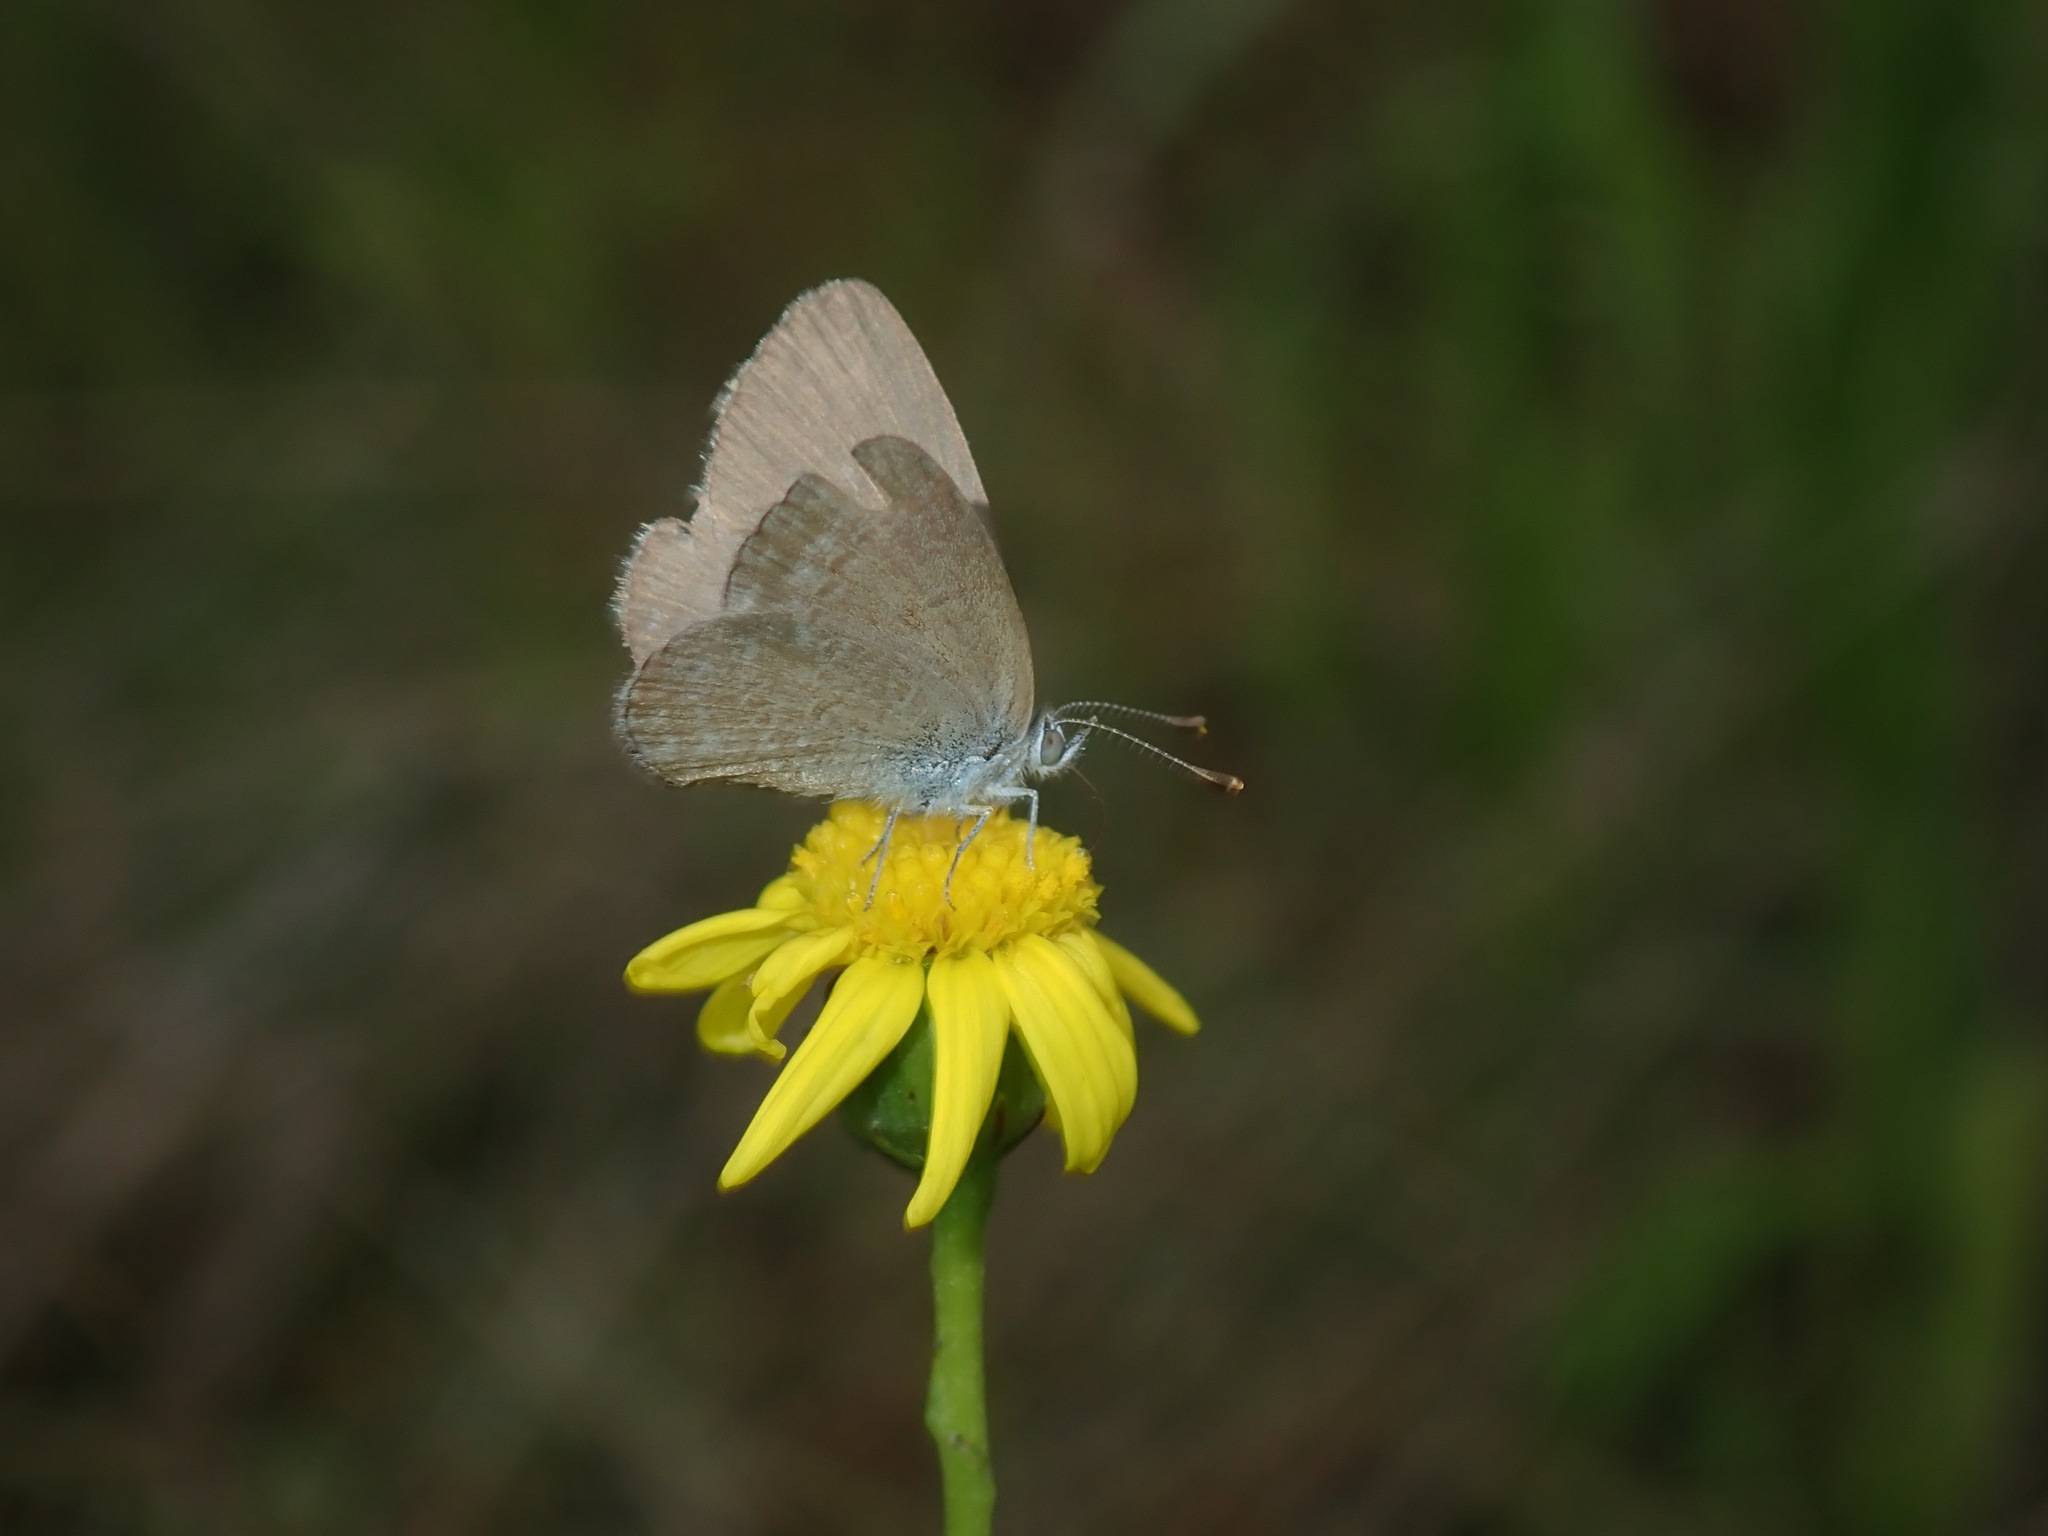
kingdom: Animalia
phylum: Arthropoda
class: Insecta
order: Lepidoptera
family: Lycaenidae
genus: Zizina
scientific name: Zizina labradus
